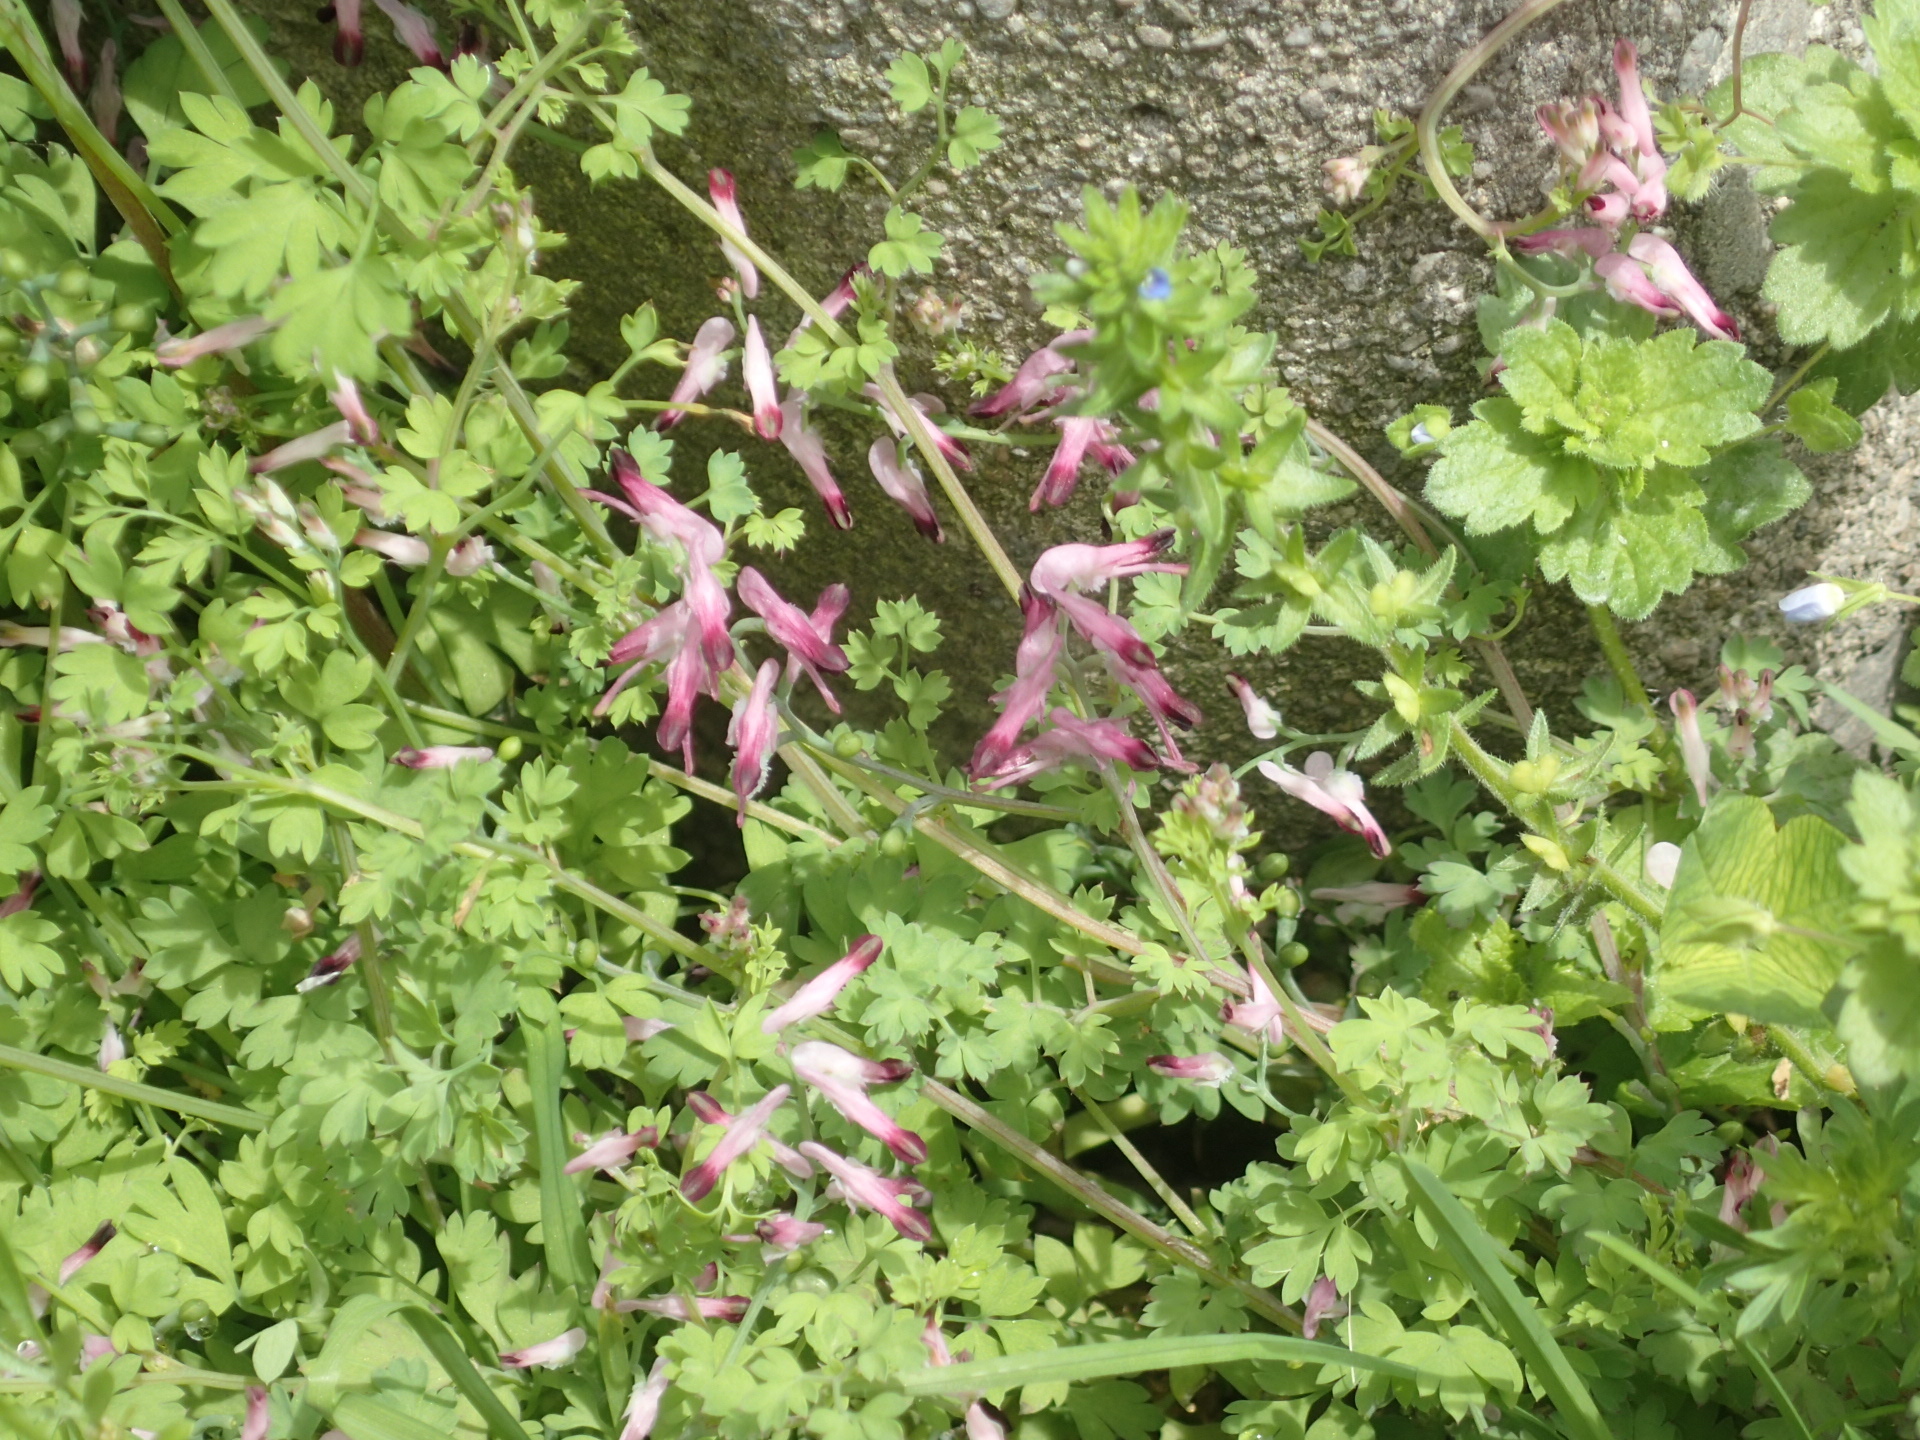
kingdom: Plantae
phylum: Tracheophyta
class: Magnoliopsida
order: Ranunculales
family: Papaveraceae
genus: Fumaria
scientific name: Fumaria muralis
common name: Common ramping-fumitory
